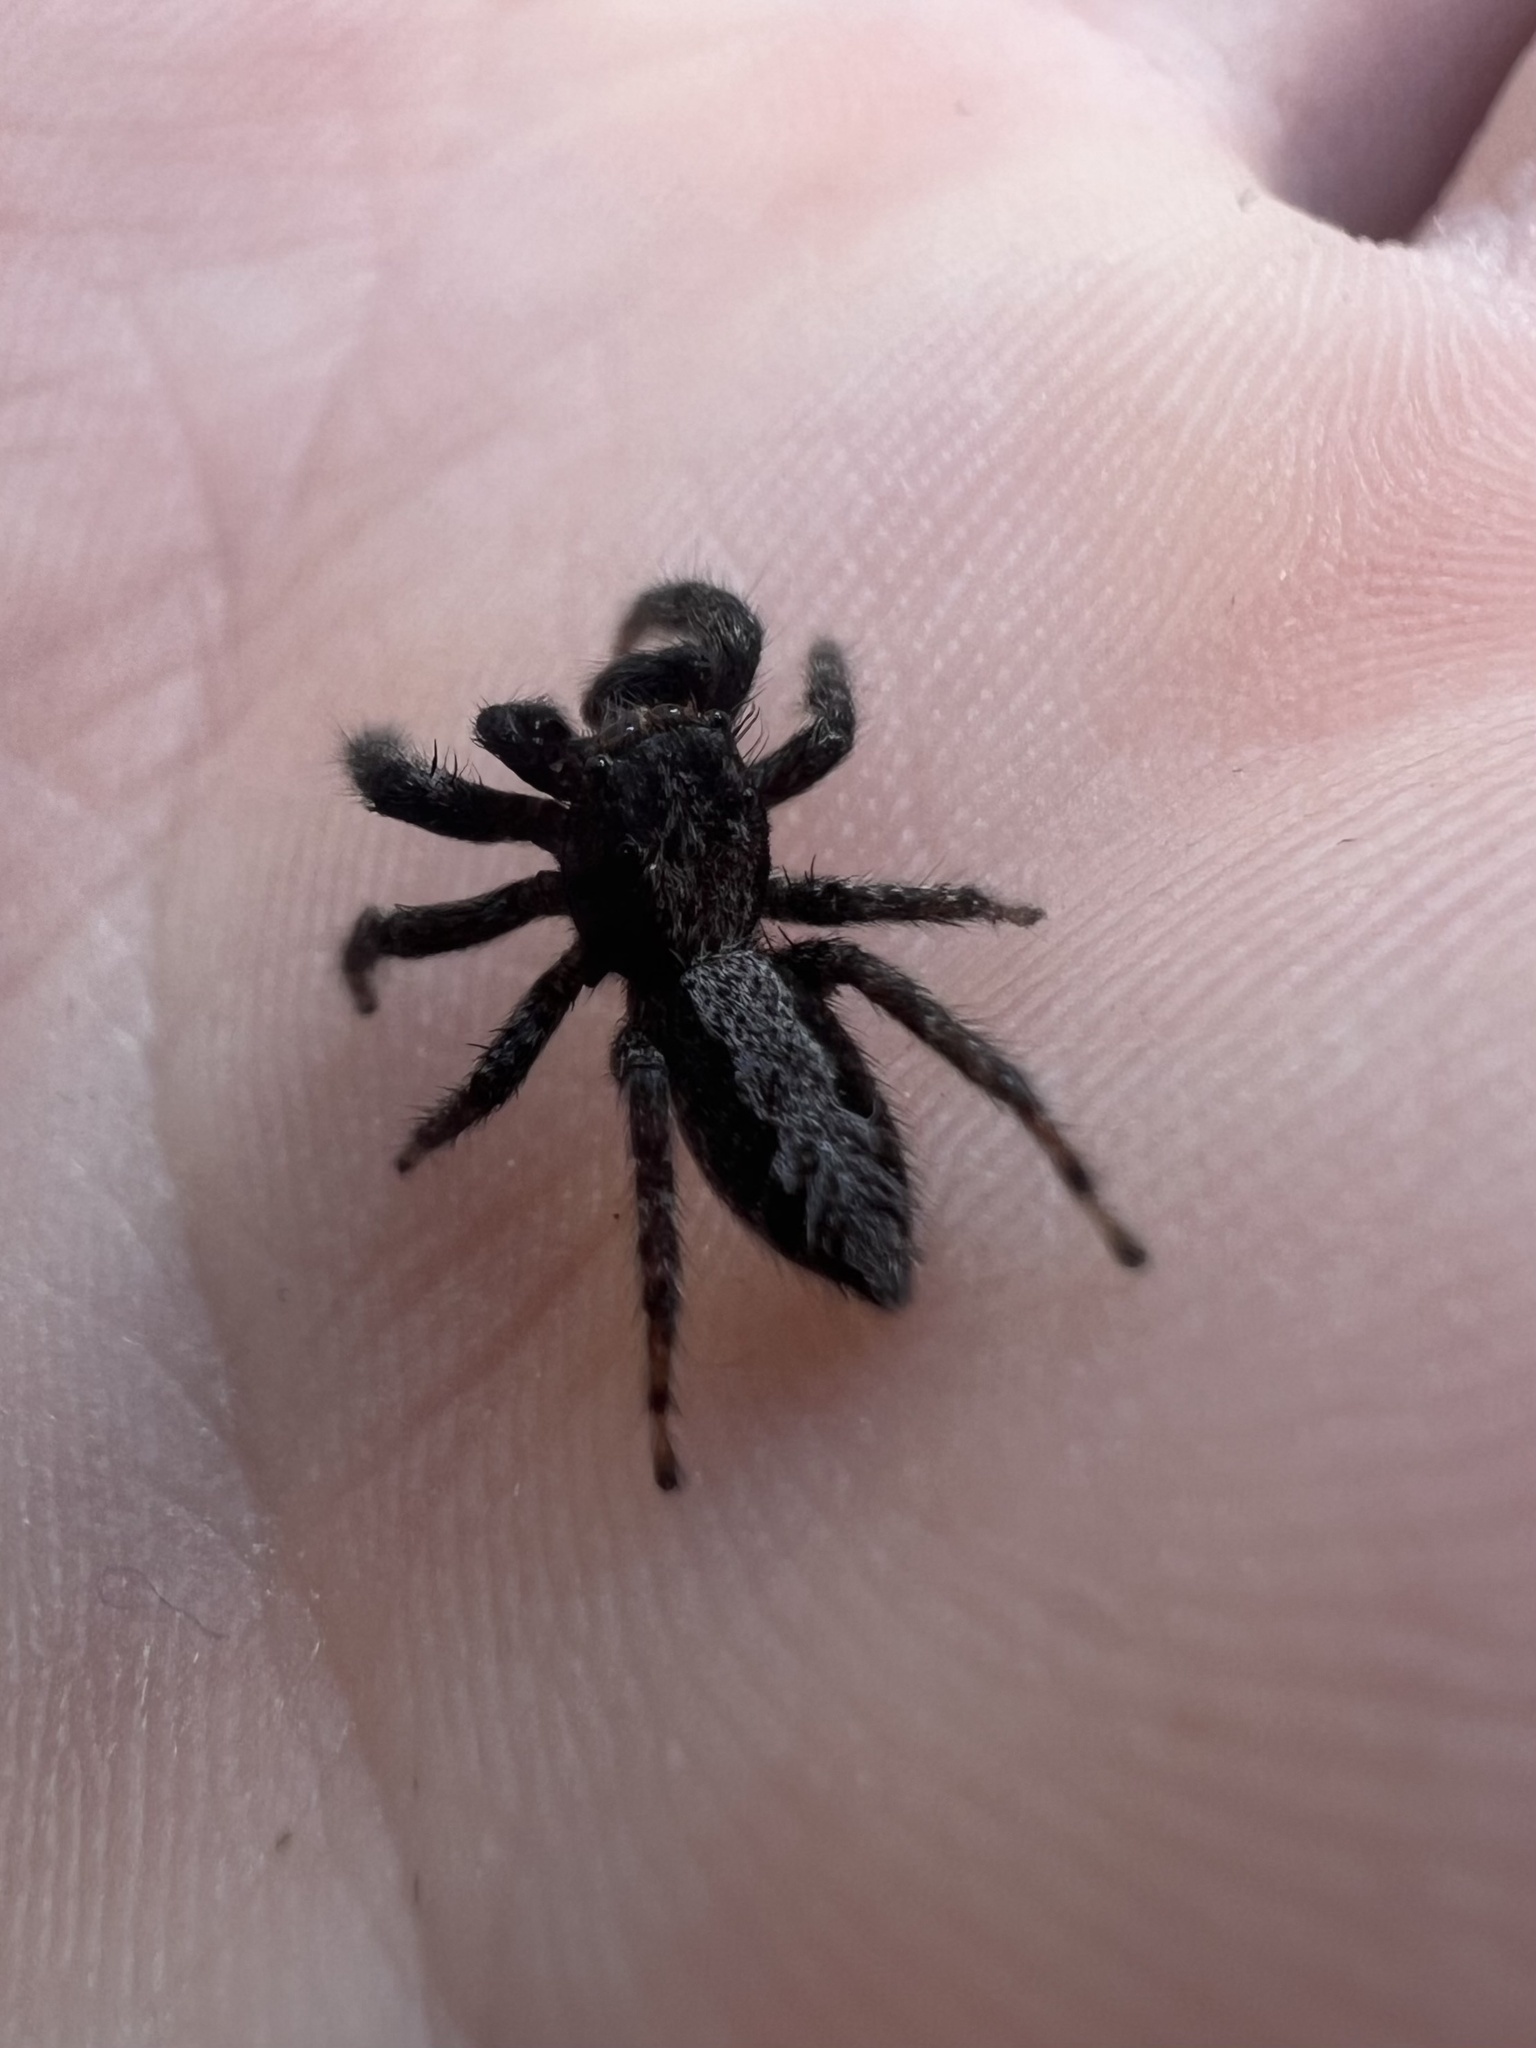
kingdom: Animalia
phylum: Arthropoda
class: Arachnida
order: Araneae
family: Salticidae
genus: Platycryptus
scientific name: Platycryptus californicus
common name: Jumping spiders
